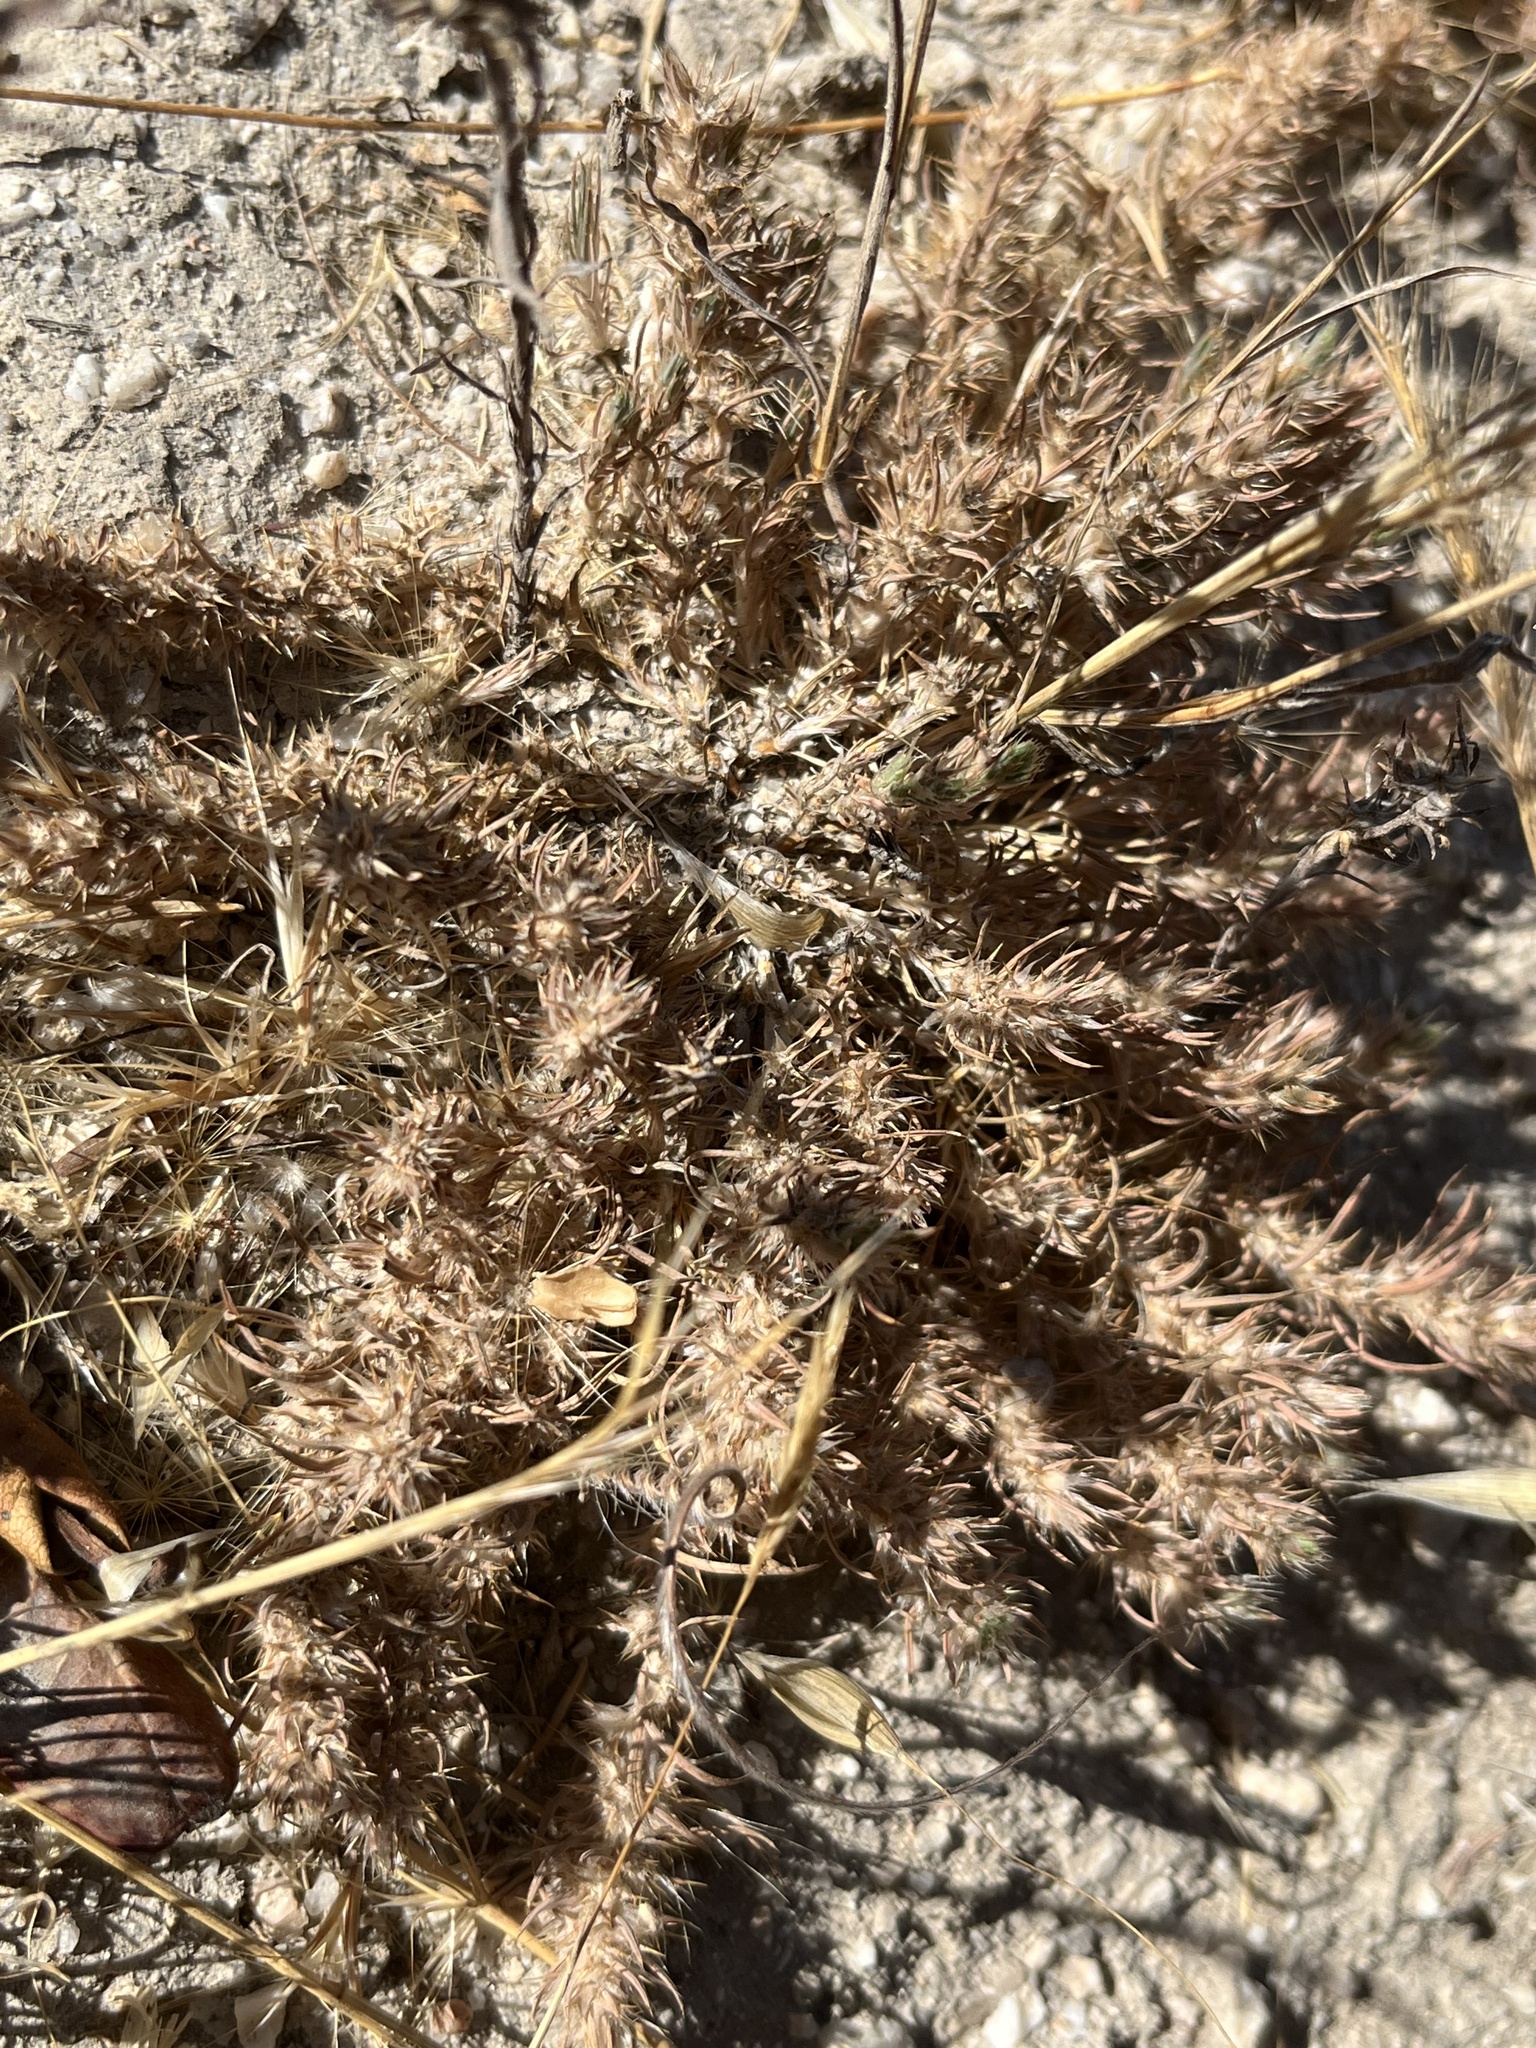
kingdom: Plantae
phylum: Tracheophyta
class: Magnoliopsida
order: Caryophyllales
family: Caryophyllaceae
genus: Cardionema
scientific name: Cardionema ramosissima
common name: Sandcarpet
